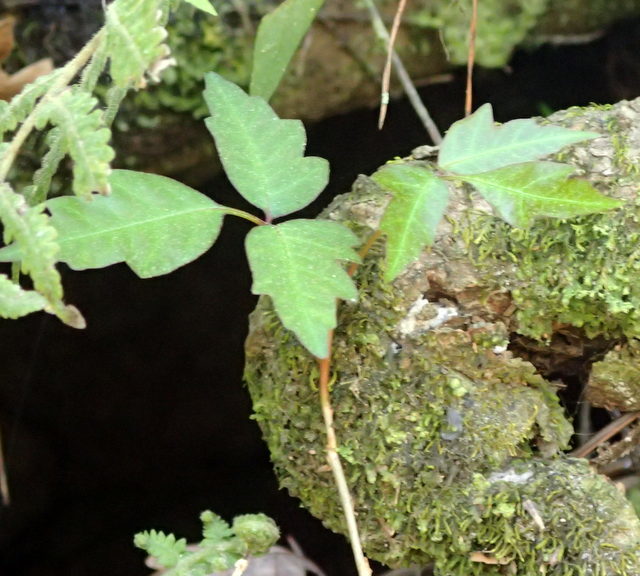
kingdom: Plantae
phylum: Tracheophyta
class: Magnoliopsida
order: Sapindales
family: Anacardiaceae
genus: Toxicodendron
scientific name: Toxicodendron radicans
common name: Poison ivy
